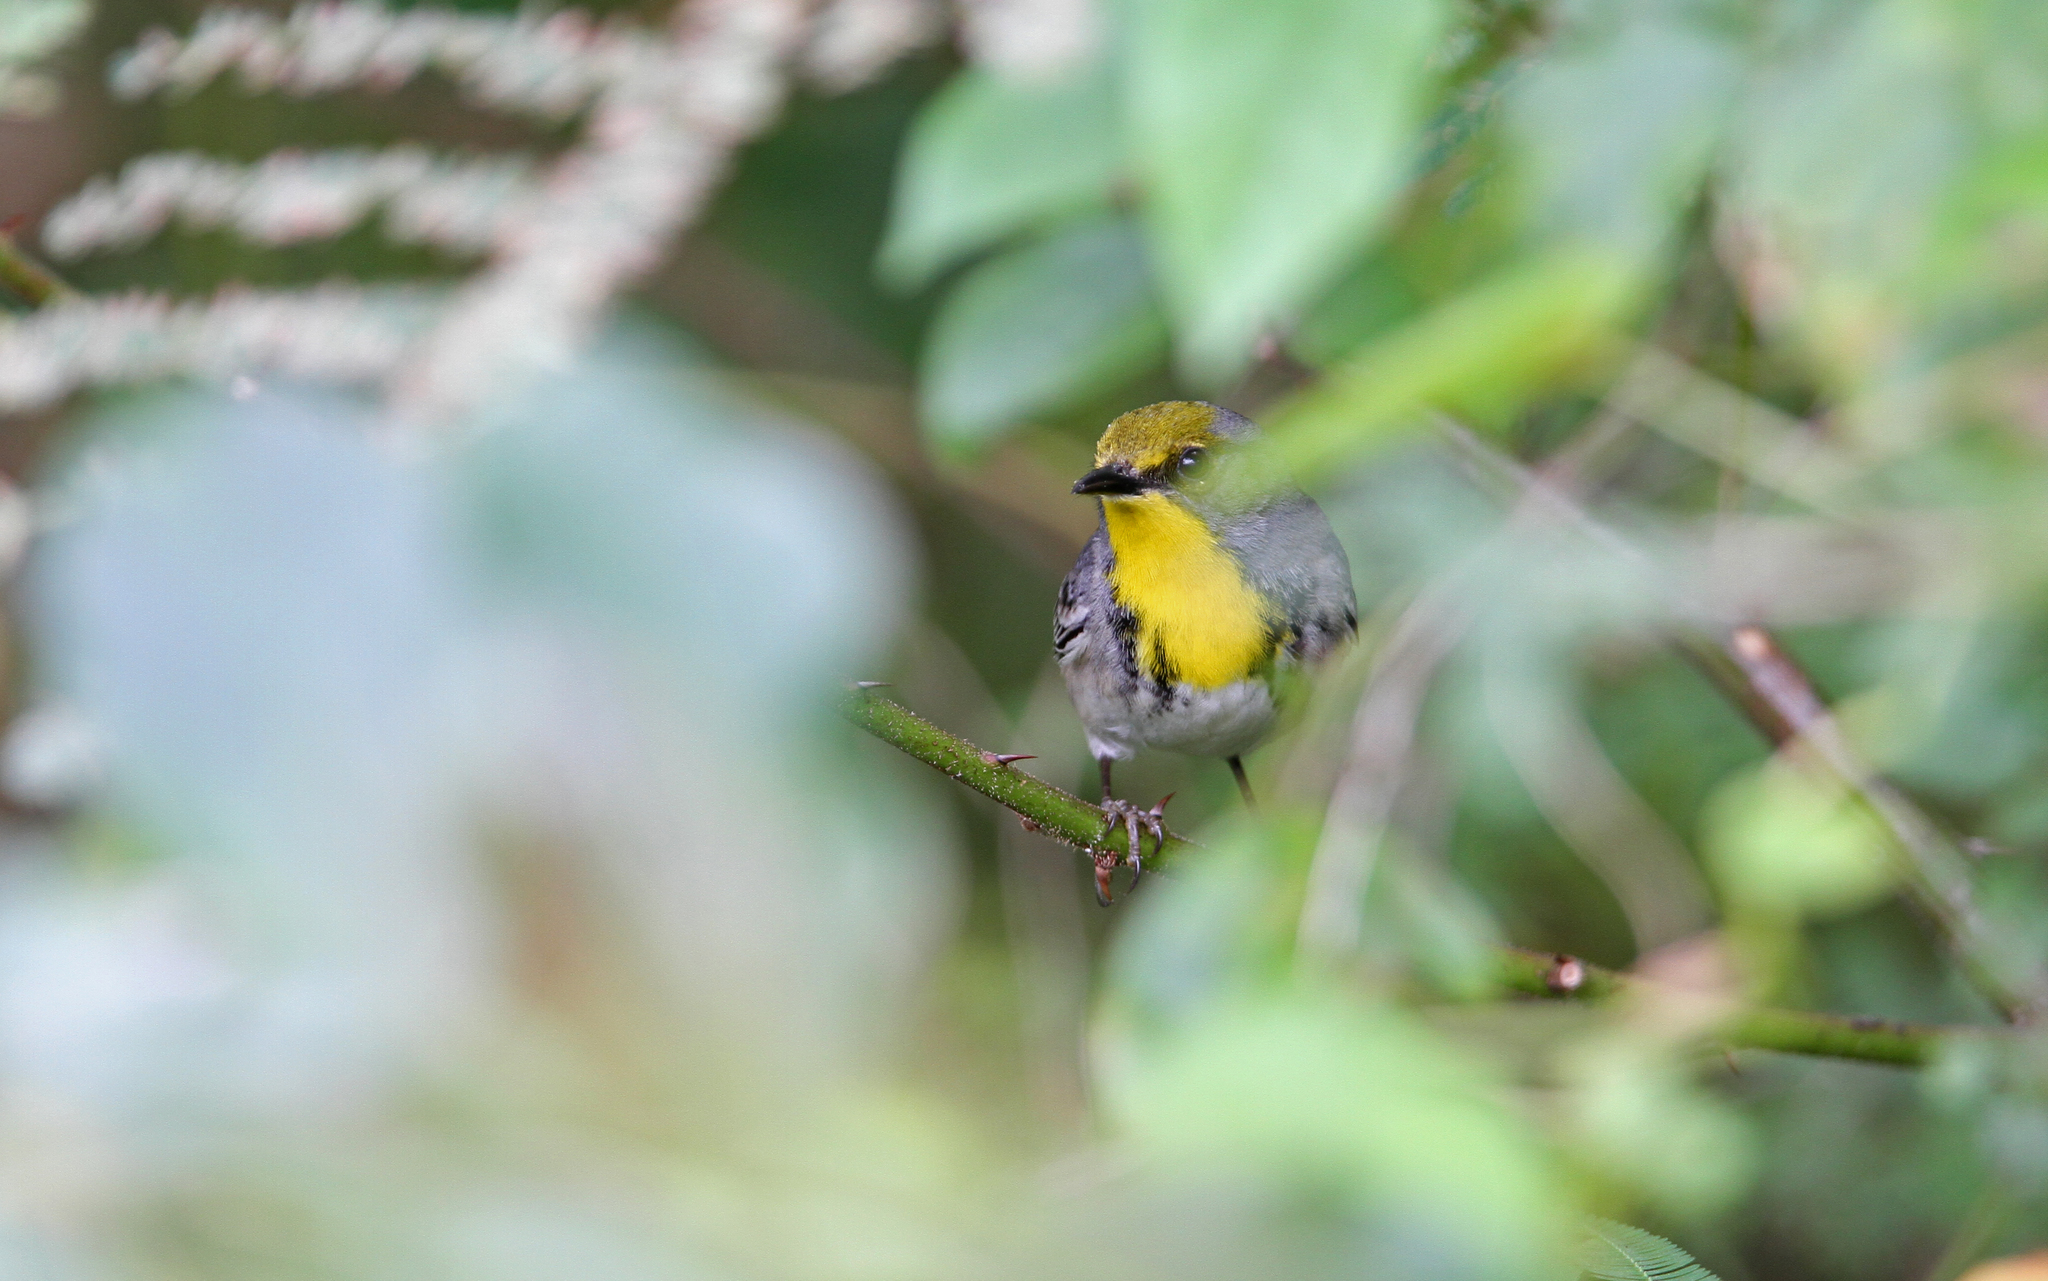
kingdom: Animalia
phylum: Chordata
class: Aves
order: Passeriformes
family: Parulidae
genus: Setophaga
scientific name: Setophaga pityophila
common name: Olive-capped warbler
